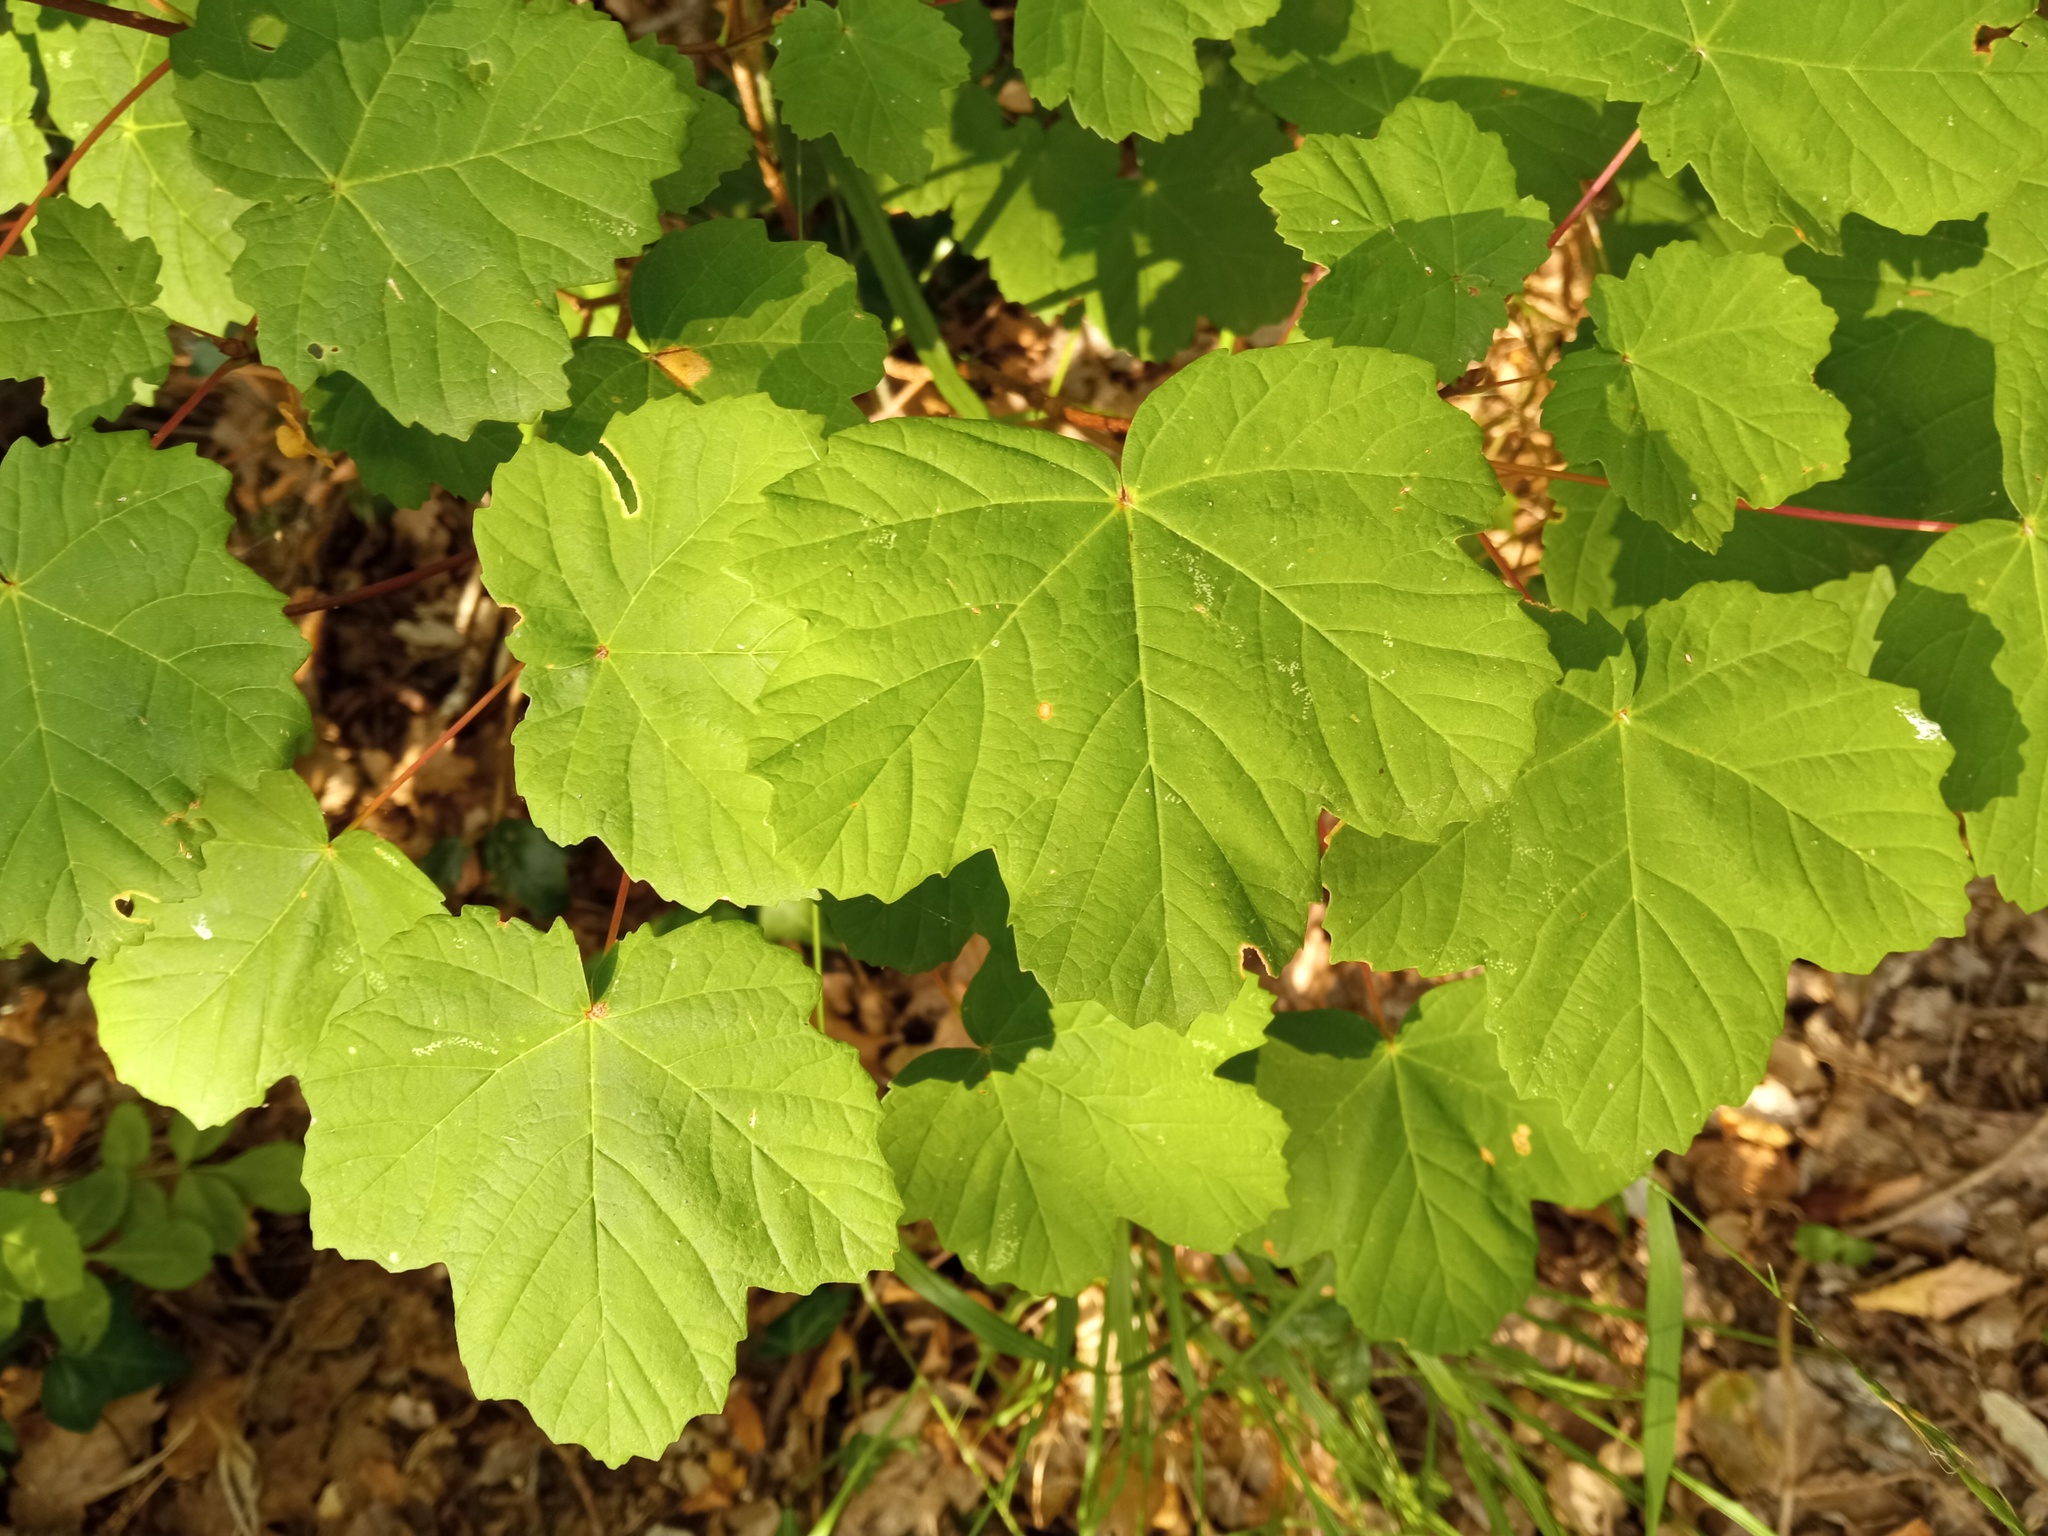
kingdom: Plantae
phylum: Tracheophyta
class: Magnoliopsida
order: Sapindales
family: Sapindaceae
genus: Acer
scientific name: Acer opalus
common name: Italian maple
